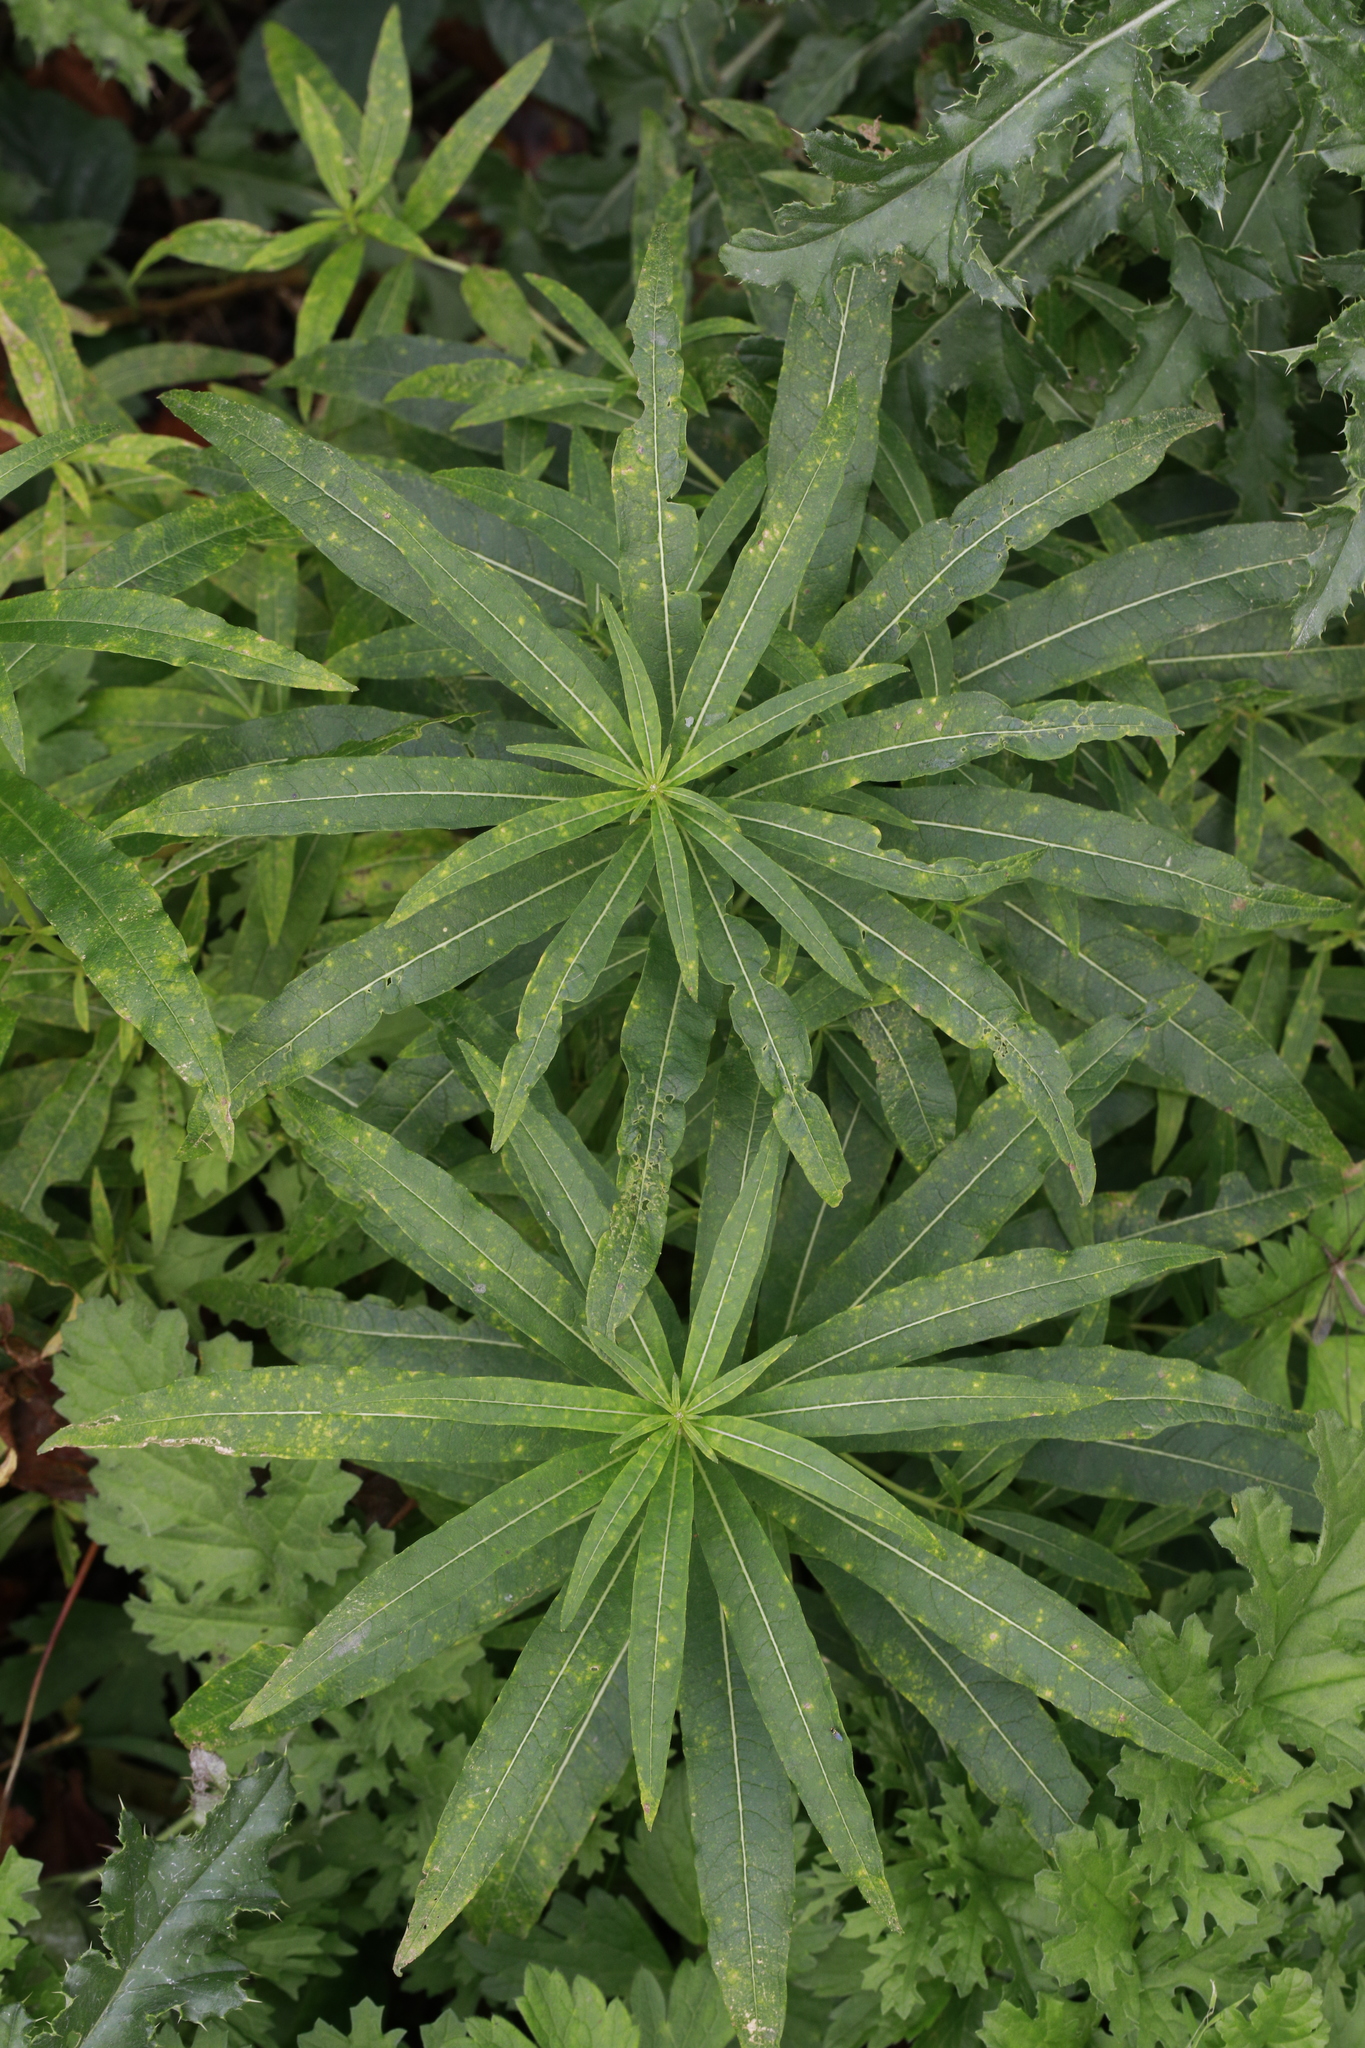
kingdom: Plantae
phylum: Tracheophyta
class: Magnoliopsida
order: Myrtales
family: Onagraceae
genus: Chamaenerion
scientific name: Chamaenerion angustifolium
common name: Fireweed
